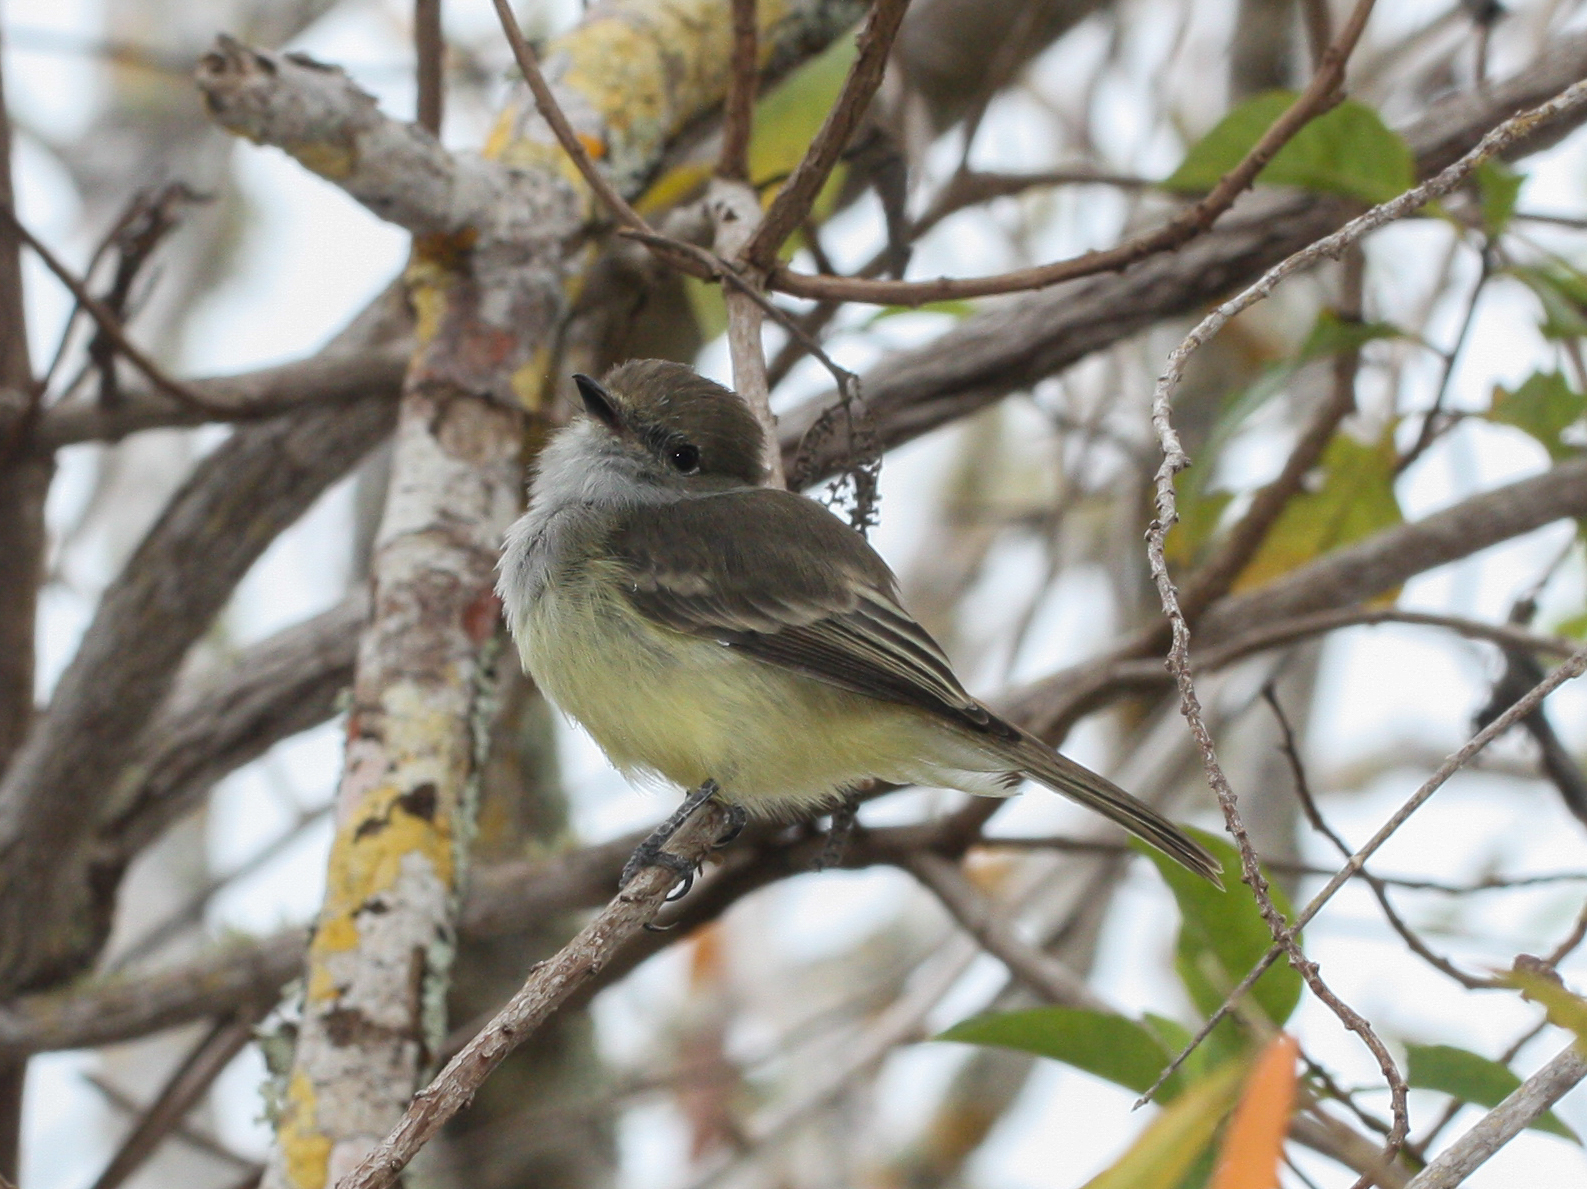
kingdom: Animalia
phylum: Chordata
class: Aves
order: Passeriformes
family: Tyrannidae
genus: Myiarchus
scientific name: Myiarchus magnirostris
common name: Galapagos flycatcher
